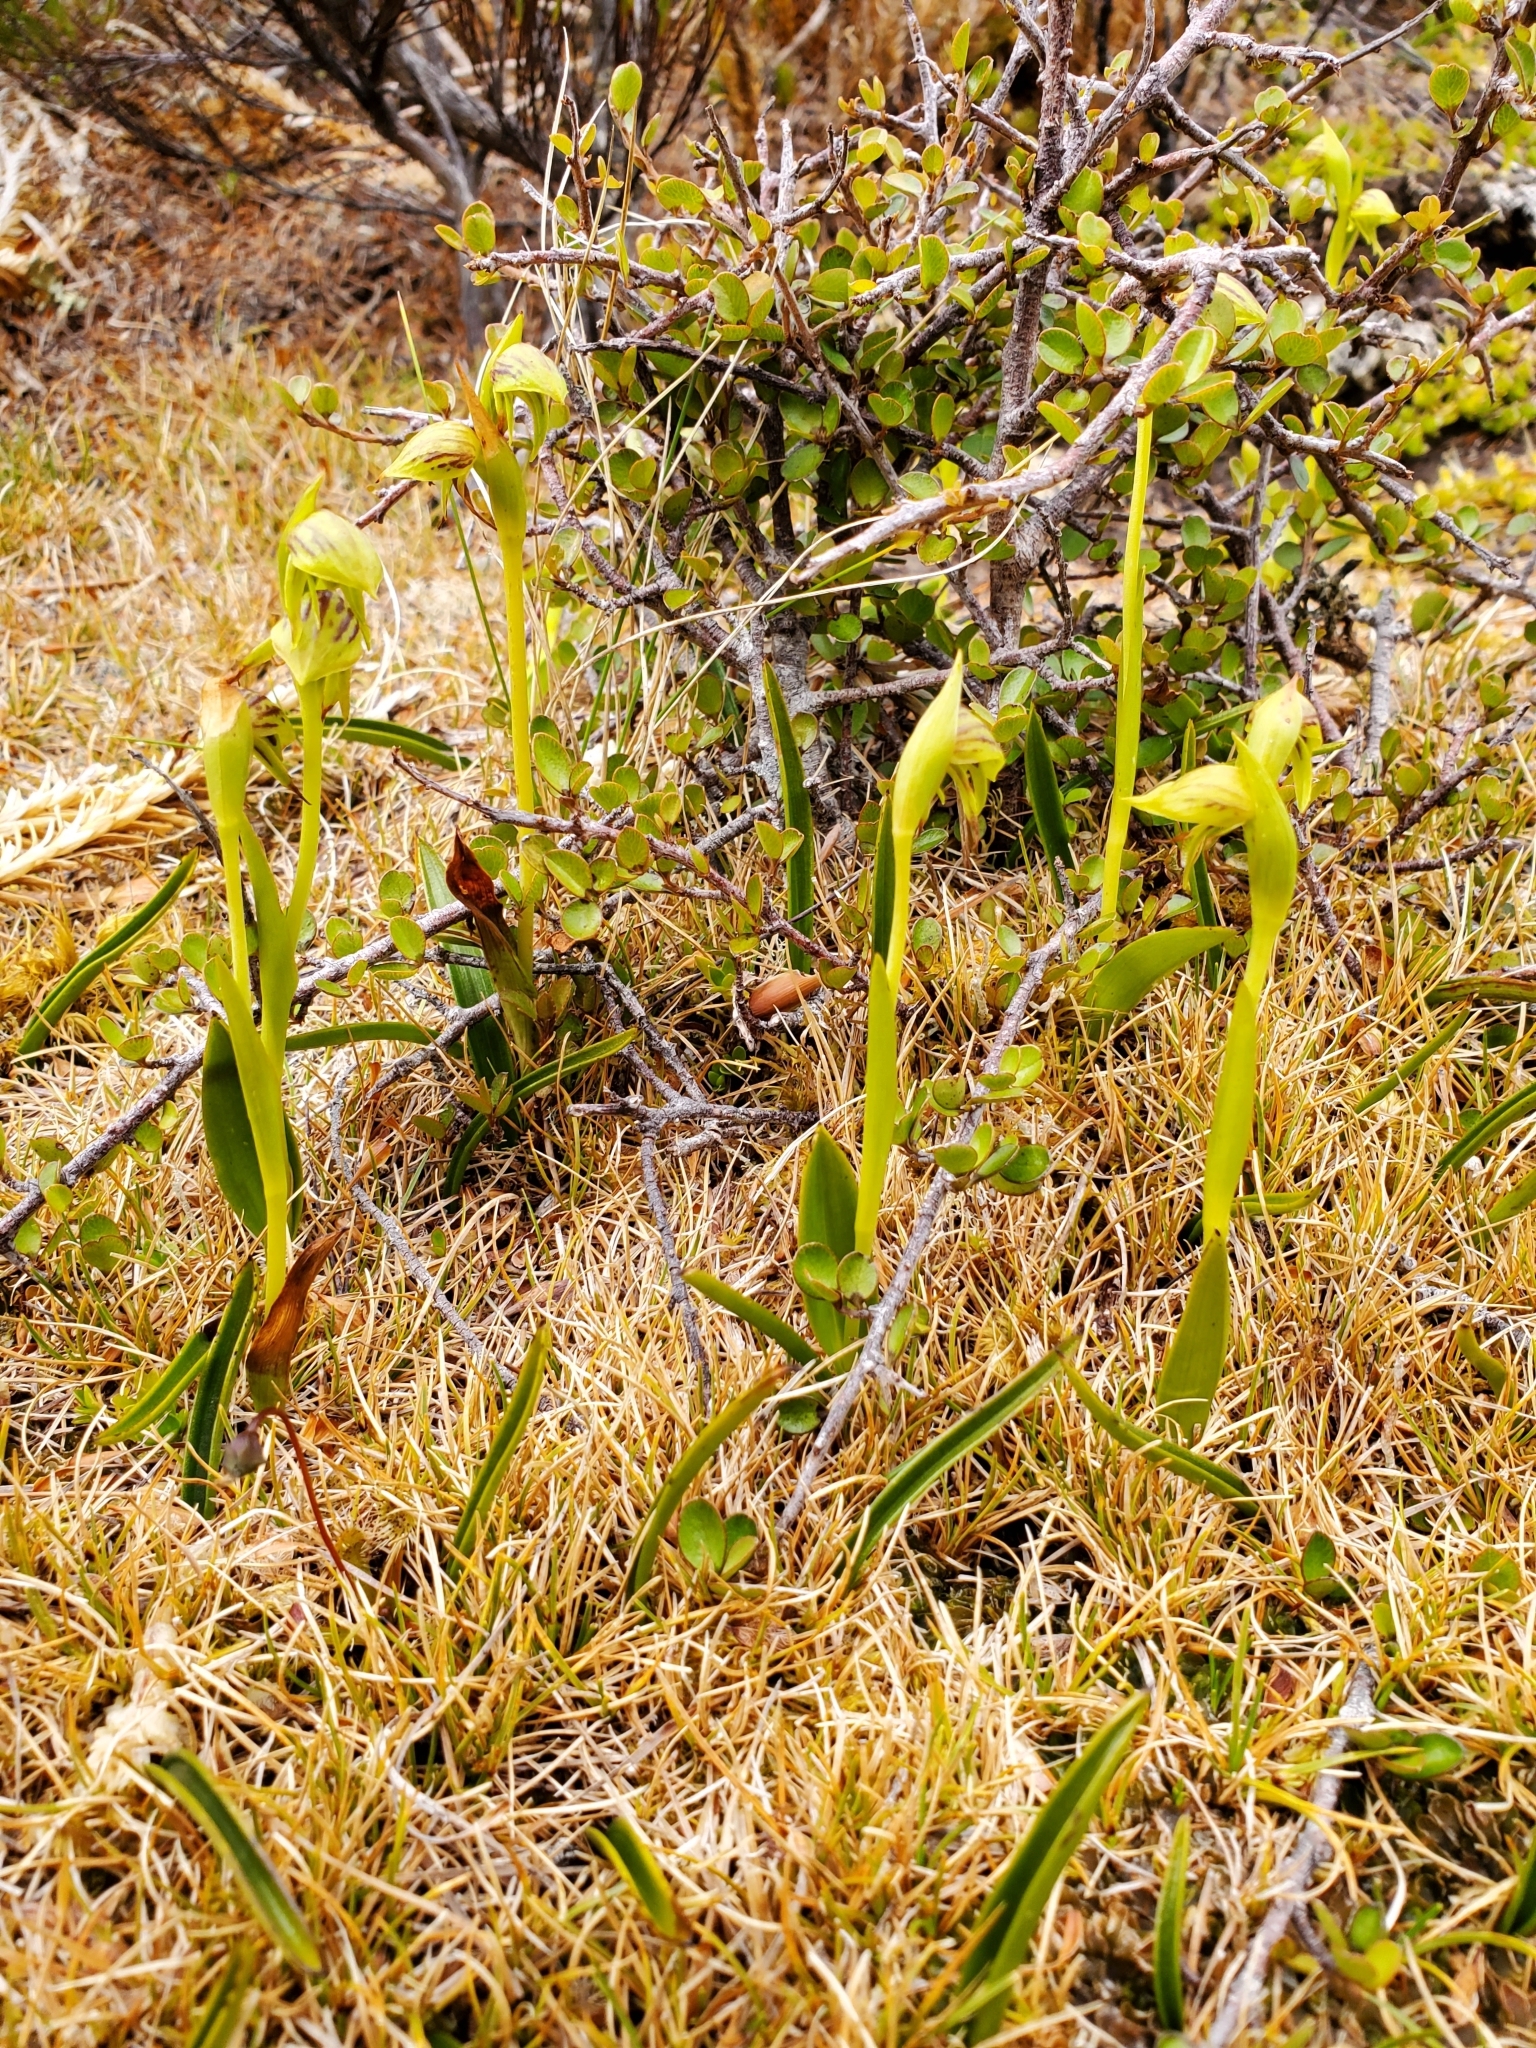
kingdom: Plantae
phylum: Tracheophyta
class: Liliopsida
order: Asparagales
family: Orchidaceae
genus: Waireia
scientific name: Waireia stenopetala
